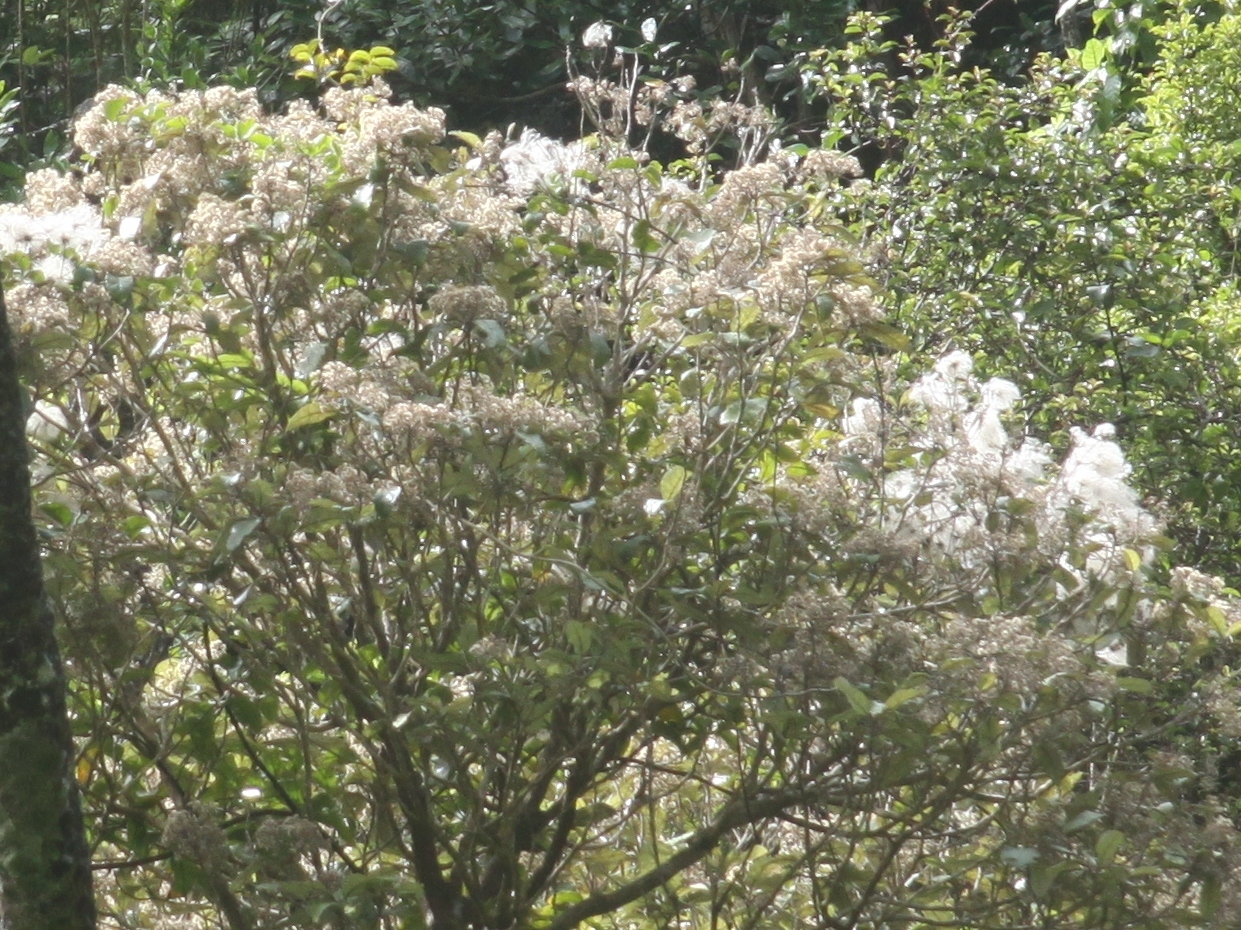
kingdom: Plantae
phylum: Tracheophyta
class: Magnoliopsida
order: Asterales
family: Asteraceae
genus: Olearia
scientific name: Olearia rani
